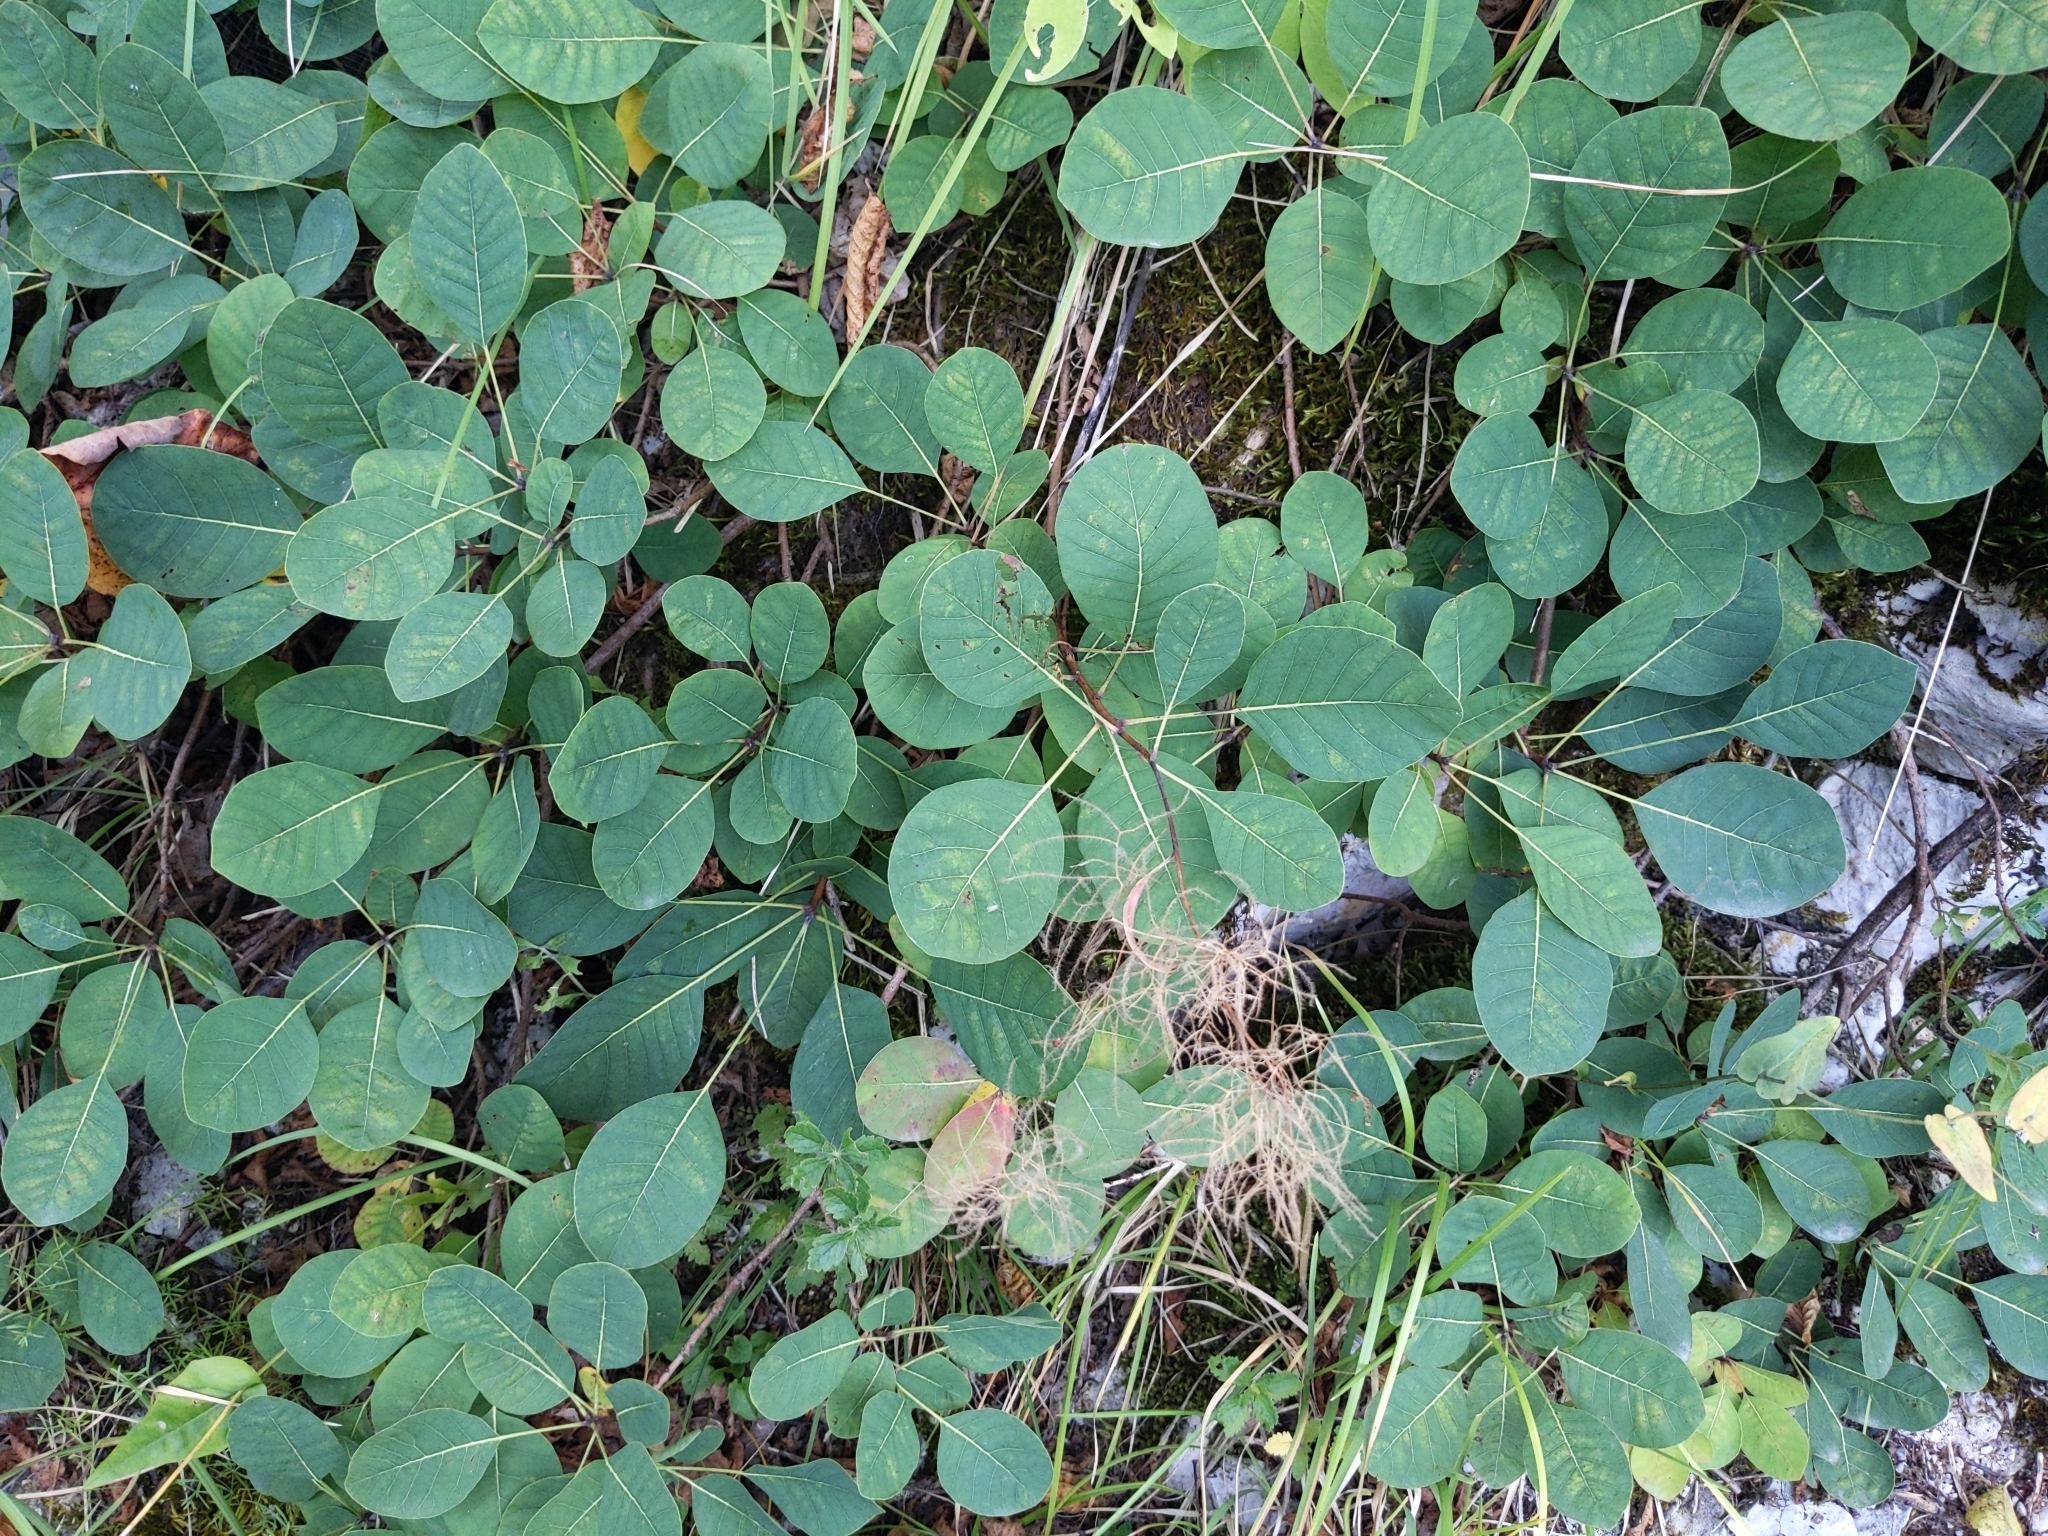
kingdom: Plantae
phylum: Tracheophyta
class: Magnoliopsida
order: Sapindales
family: Anacardiaceae
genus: Cotinus
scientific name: Cotinus coggygria
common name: Smoke-tree
